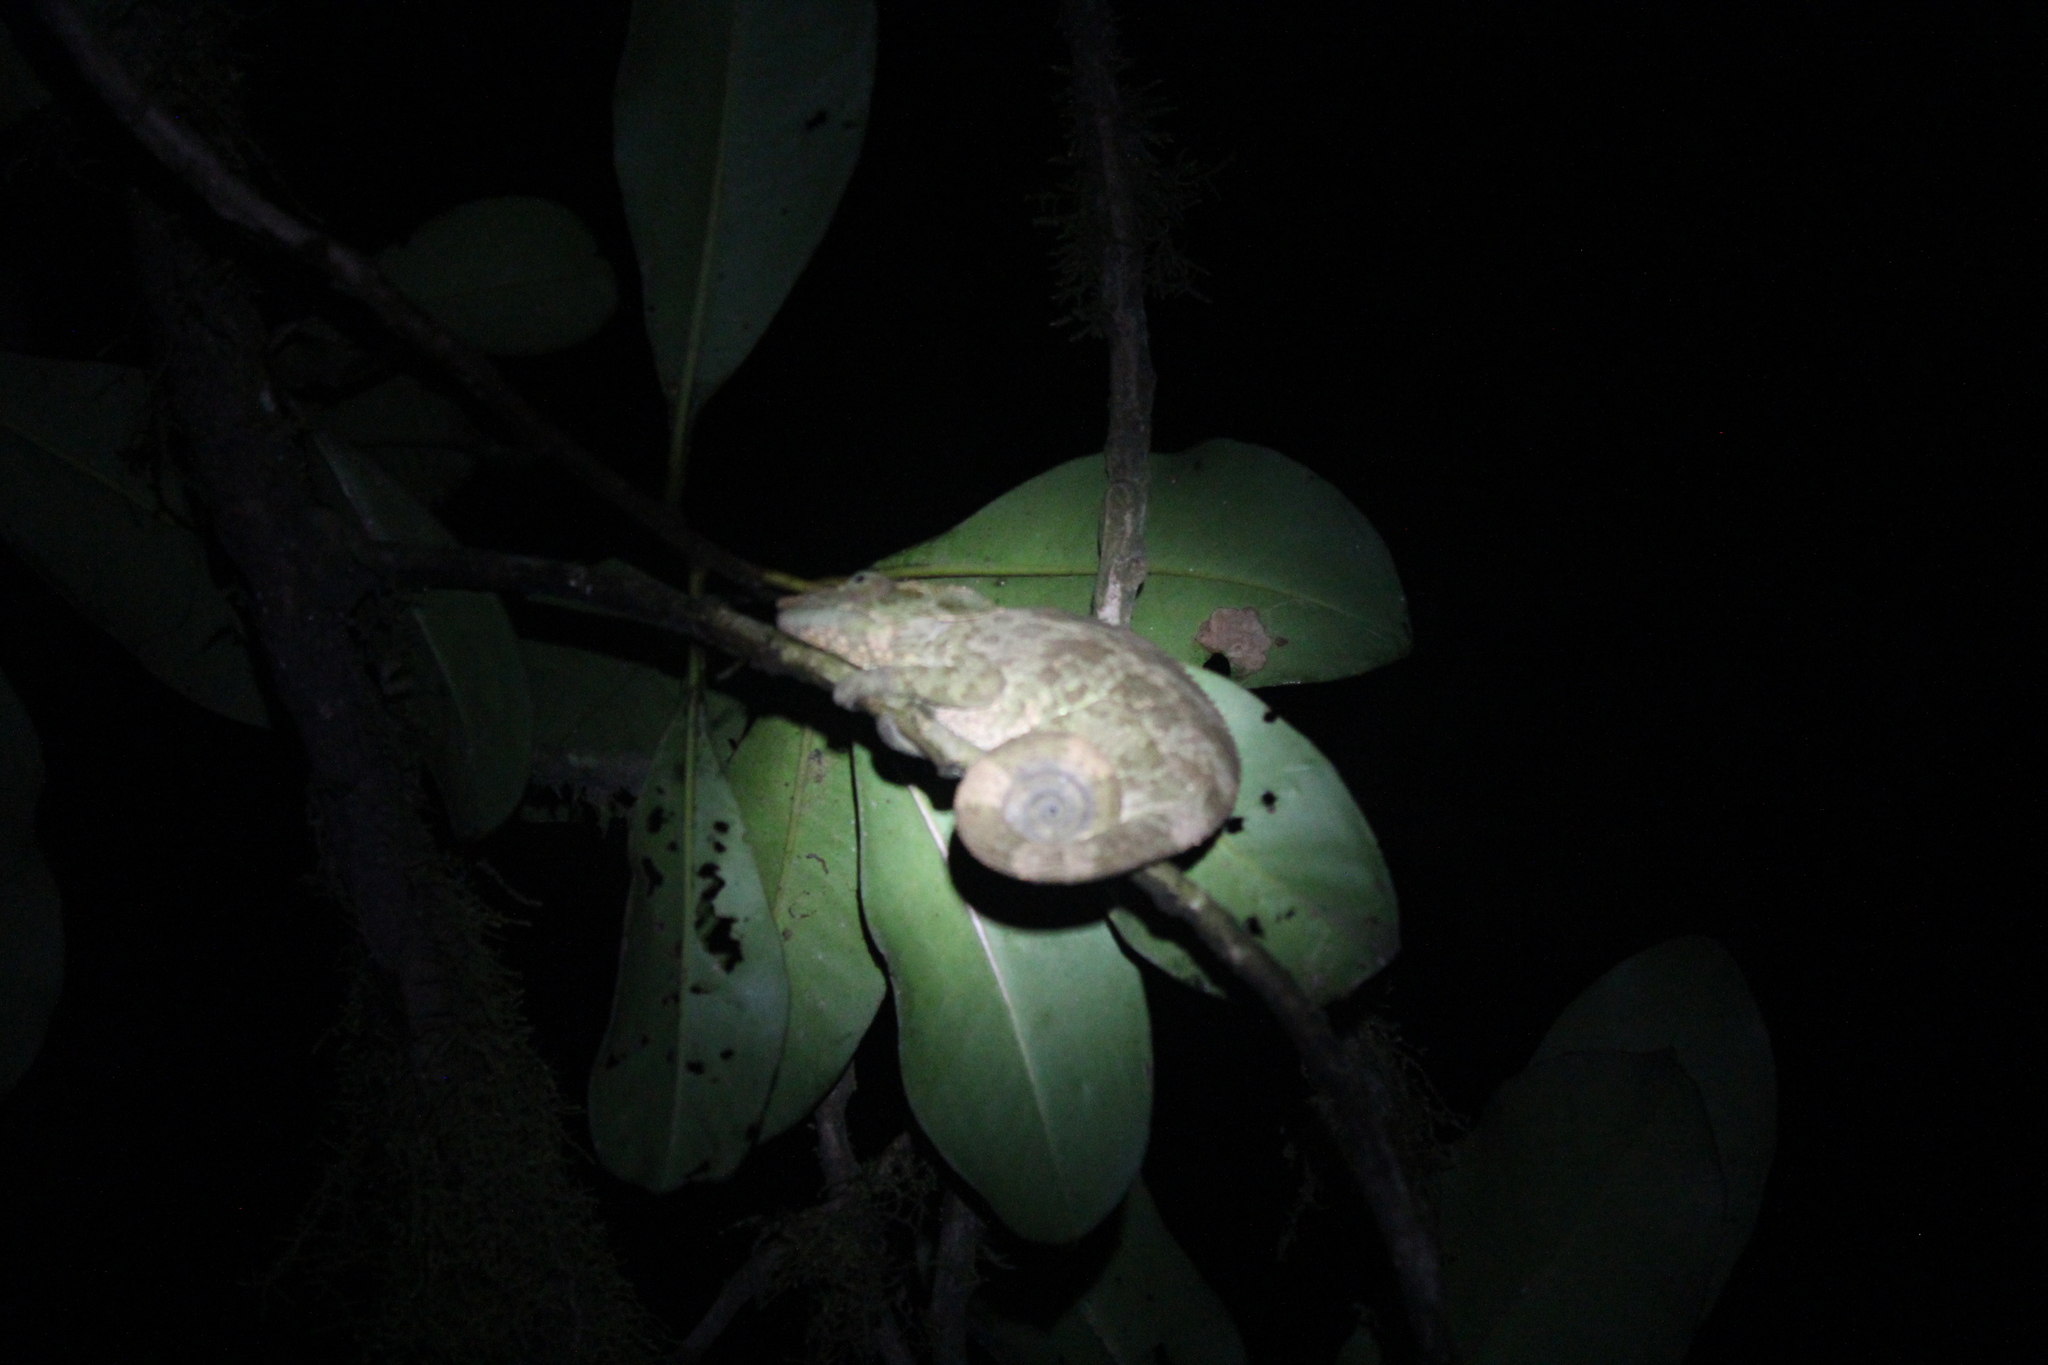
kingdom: Animalia
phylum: Chordata
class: Squamata
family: Chamaeleonidae
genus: Calumma
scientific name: Calumma crypticum
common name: Cryptic chameleon
